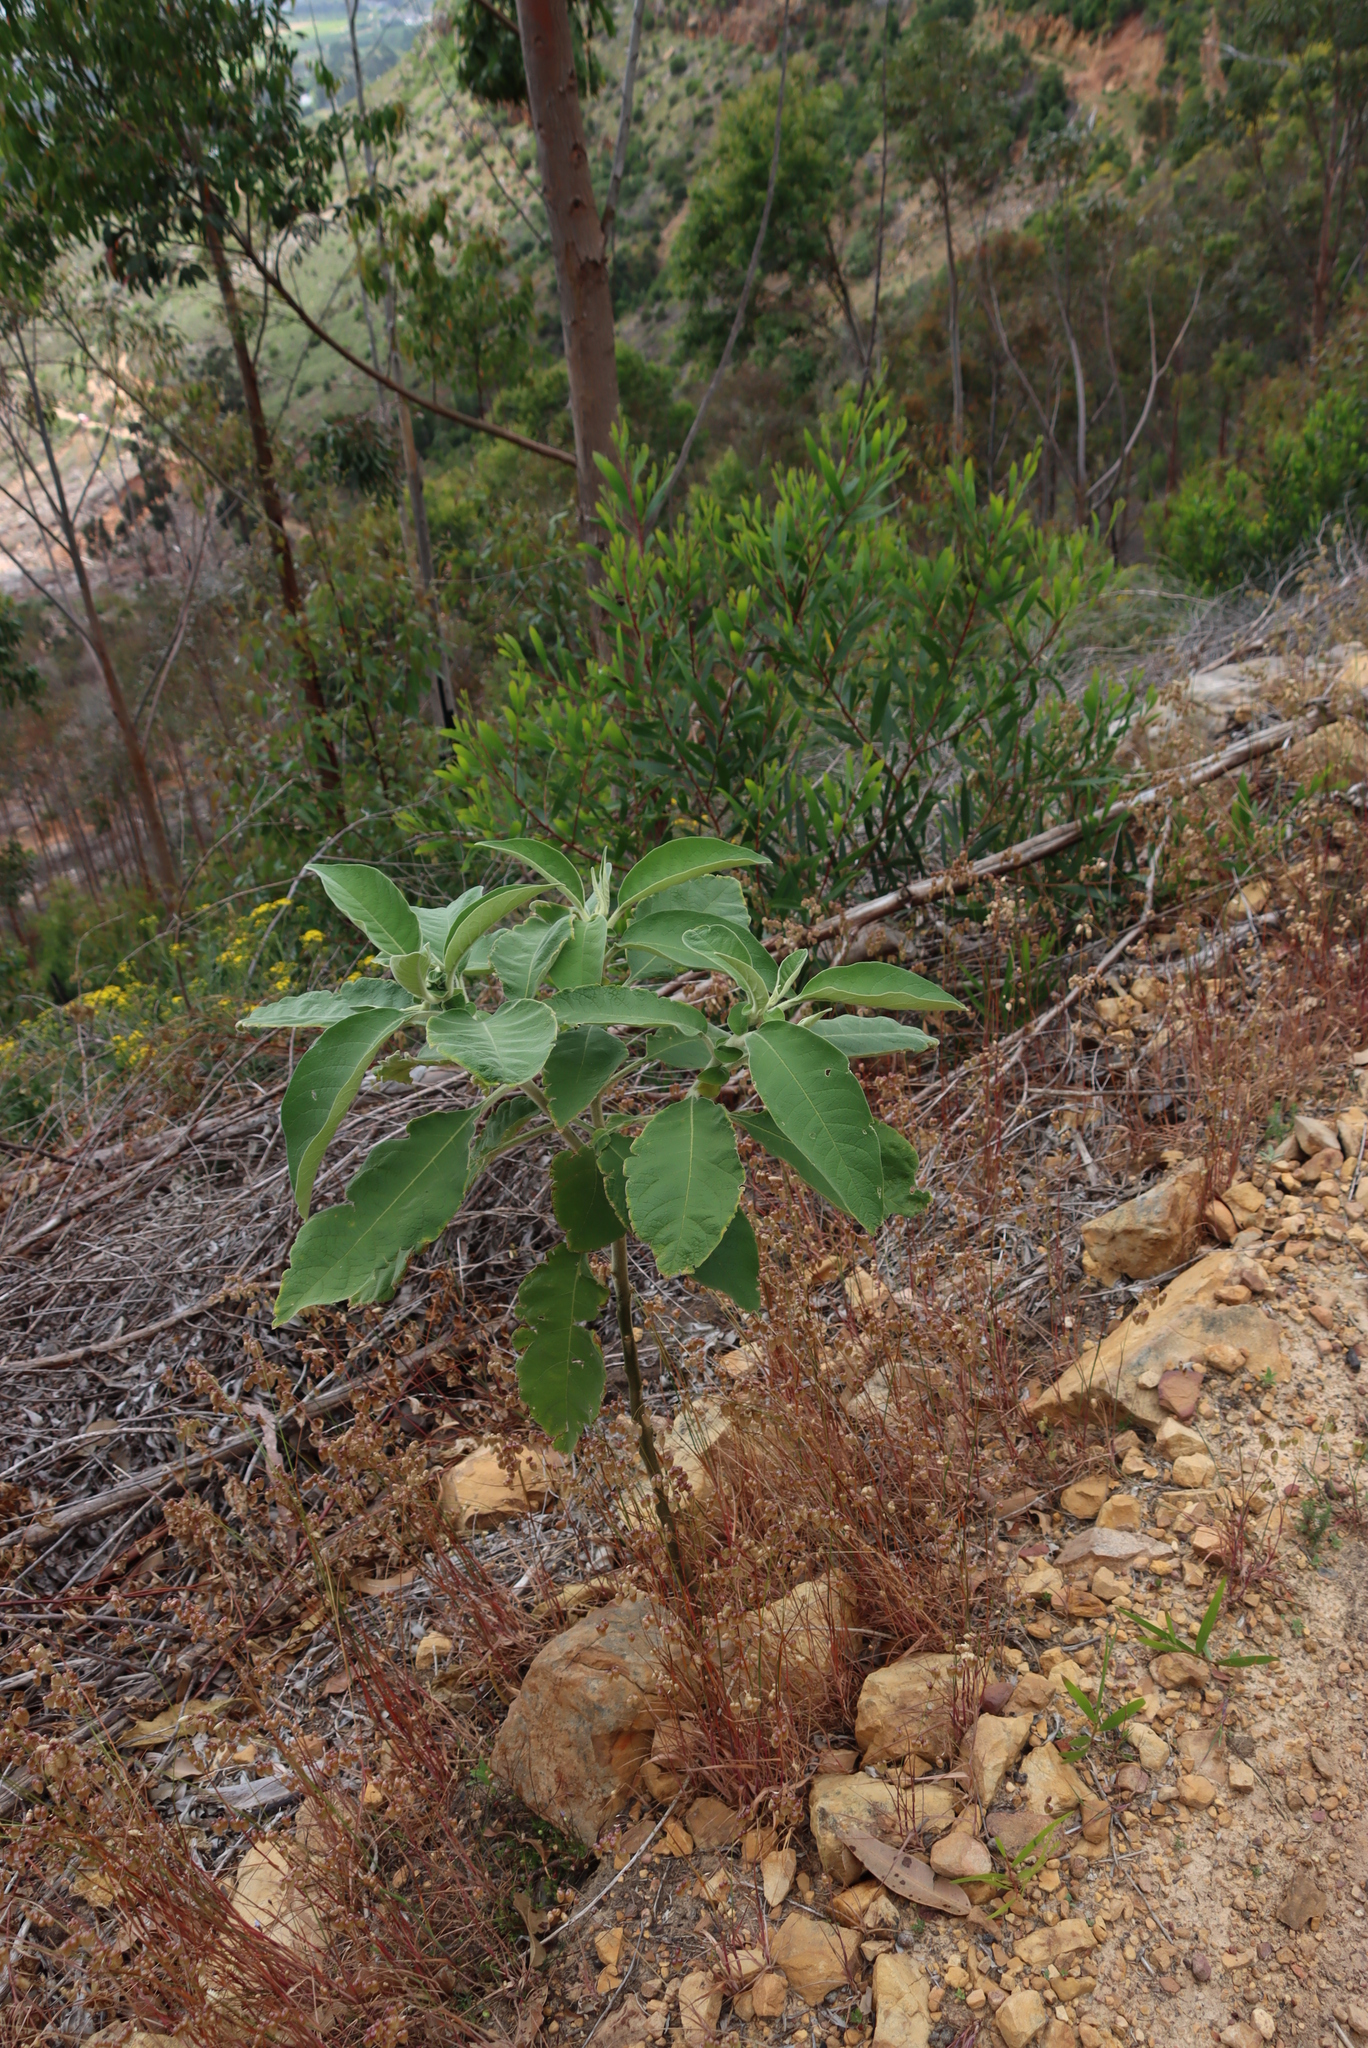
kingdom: Plantae
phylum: Tracheophyta
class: Magnoliopsida
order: Solanales
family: Solanaceae
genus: Solanum
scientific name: Solanum mauritianum
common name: Earleaf nightshade
